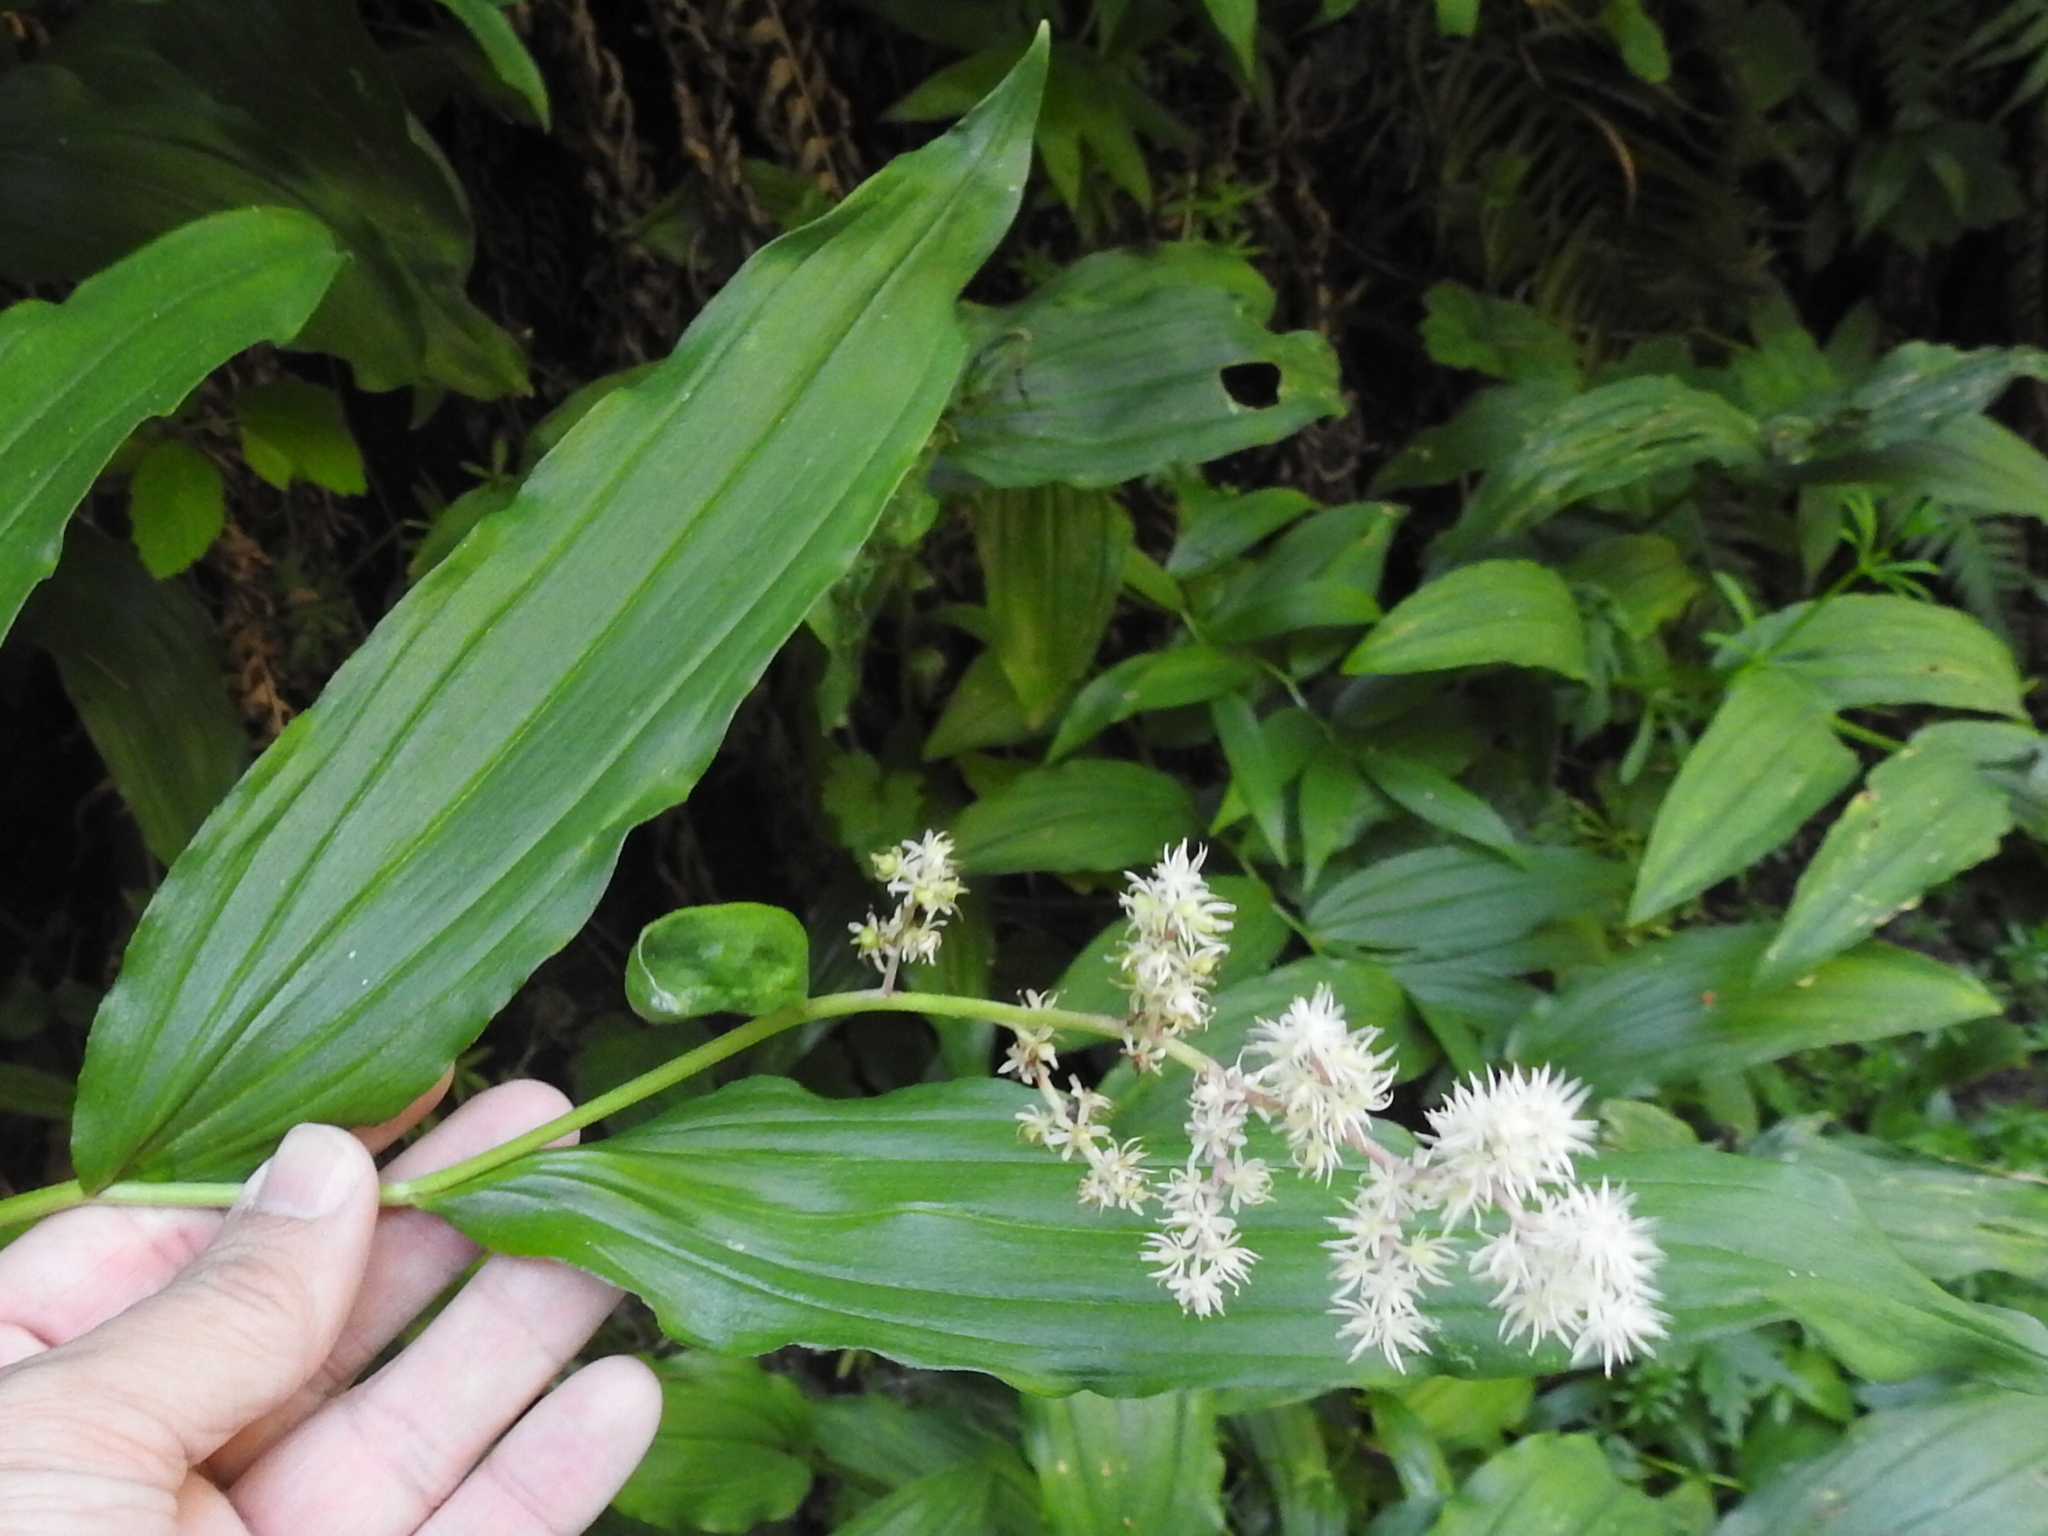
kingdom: Plantae
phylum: Tracheophyta
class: Liliopsida
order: Asparagales
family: Asparagaceae
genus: Maianthemum
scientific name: Maianthemum racemosum
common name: False spikenard
